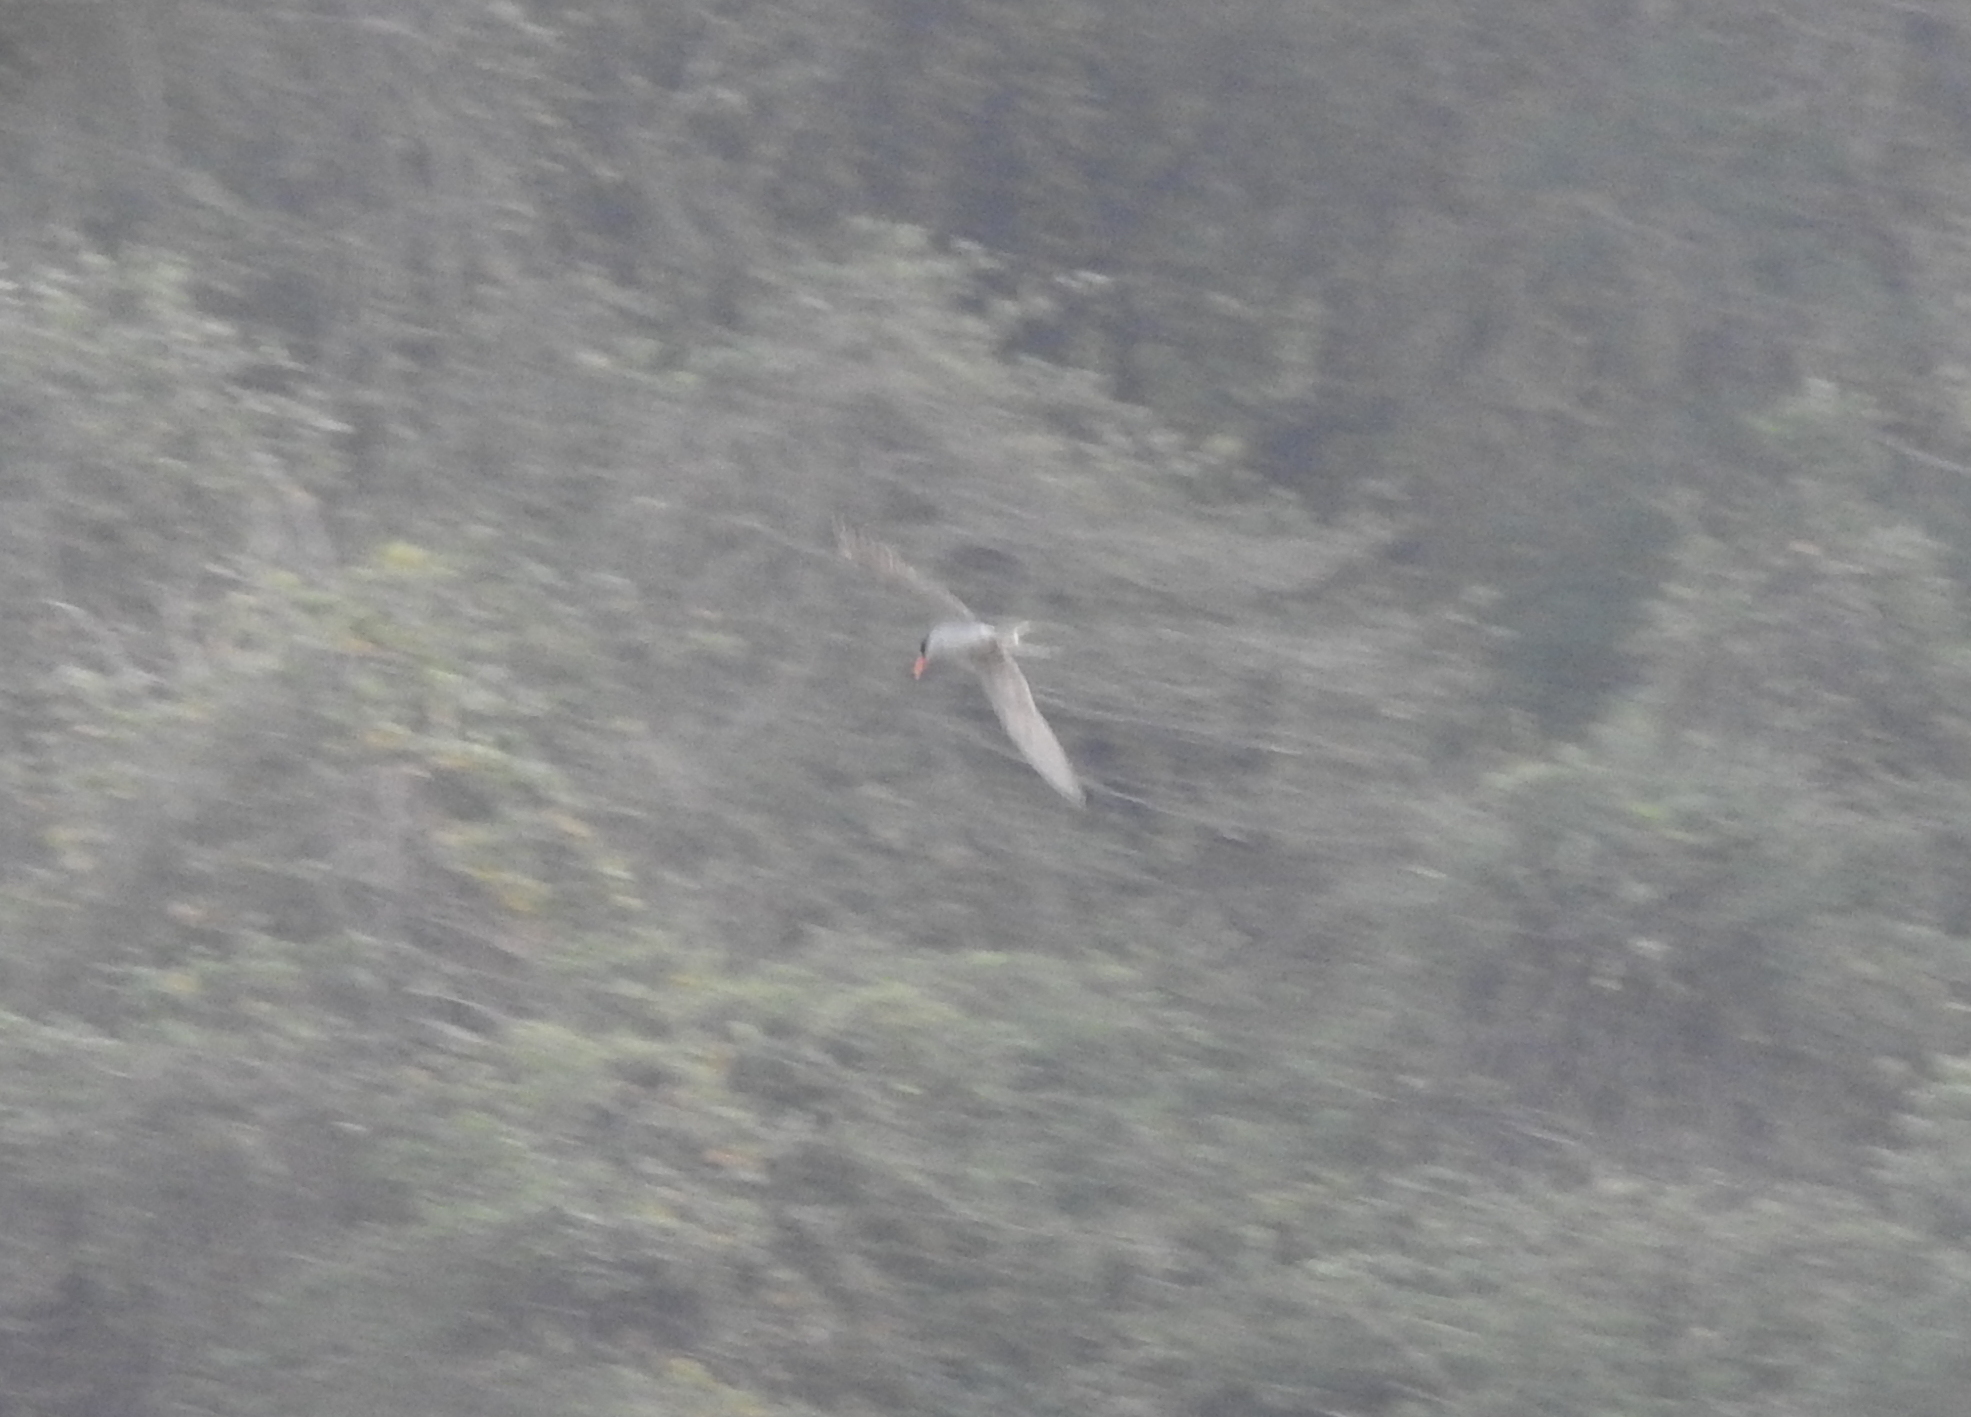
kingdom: Animalia
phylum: Chordata
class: Aves
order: Charadriiformes
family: Laridae
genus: Sterna
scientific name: Sterna aurantia
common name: River tern
